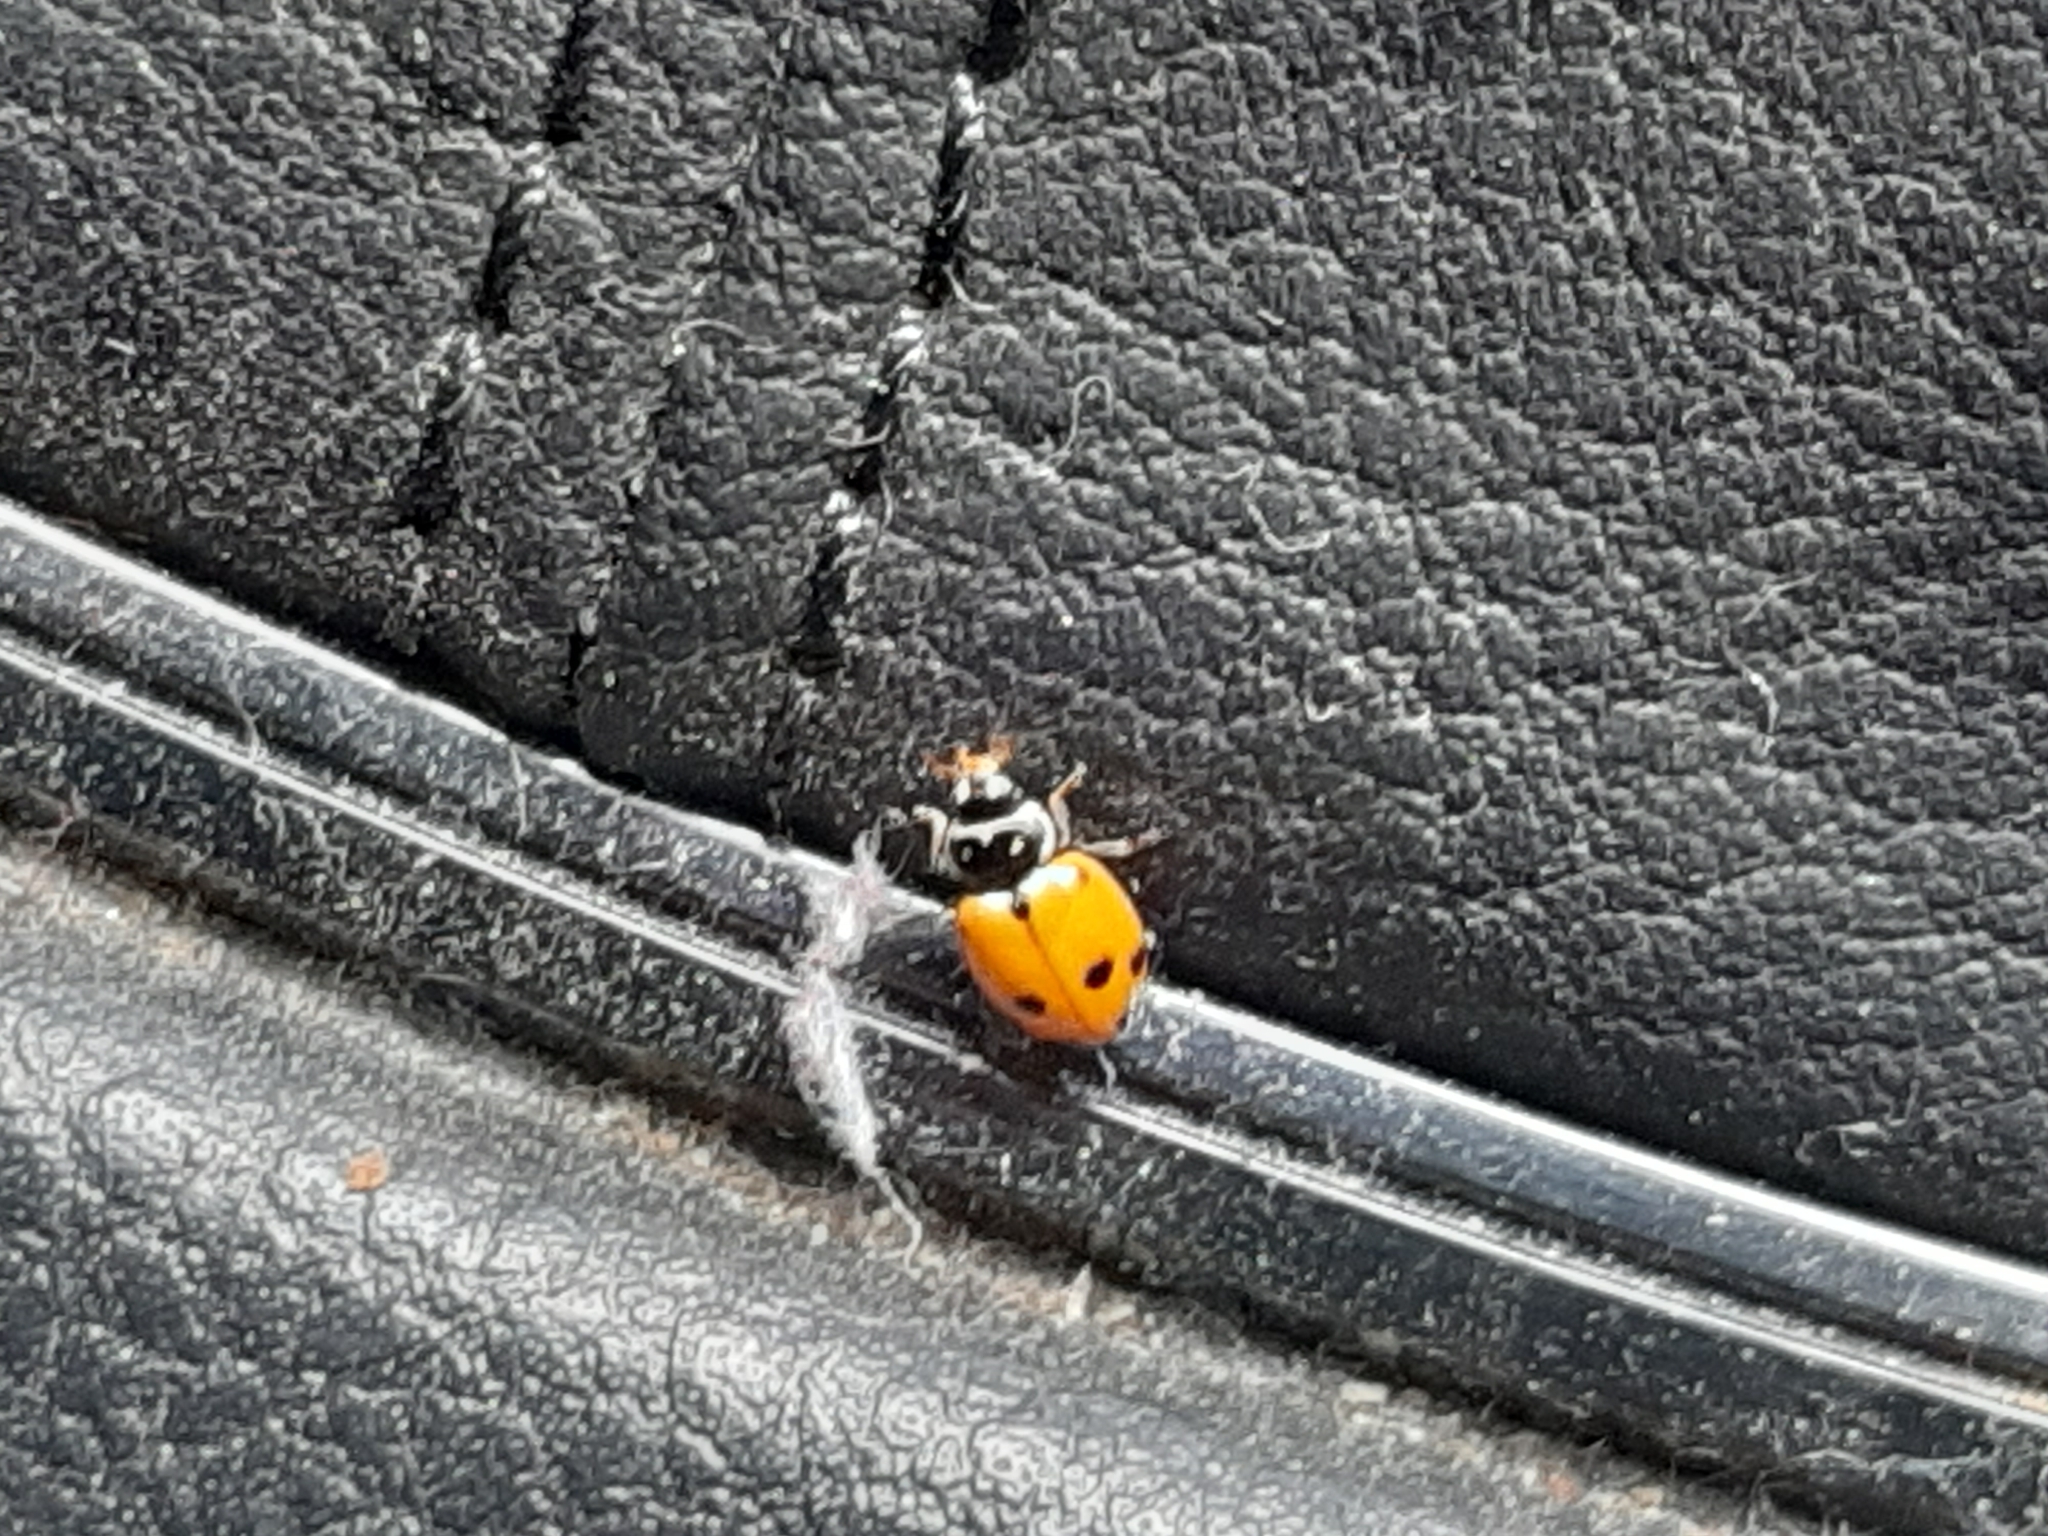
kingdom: Animalia
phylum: Arthropoda
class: Insecta
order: Coleoptera
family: Coccinellidae
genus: Hippodamia
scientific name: Hippodamia variegata
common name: Ladybird beetle
